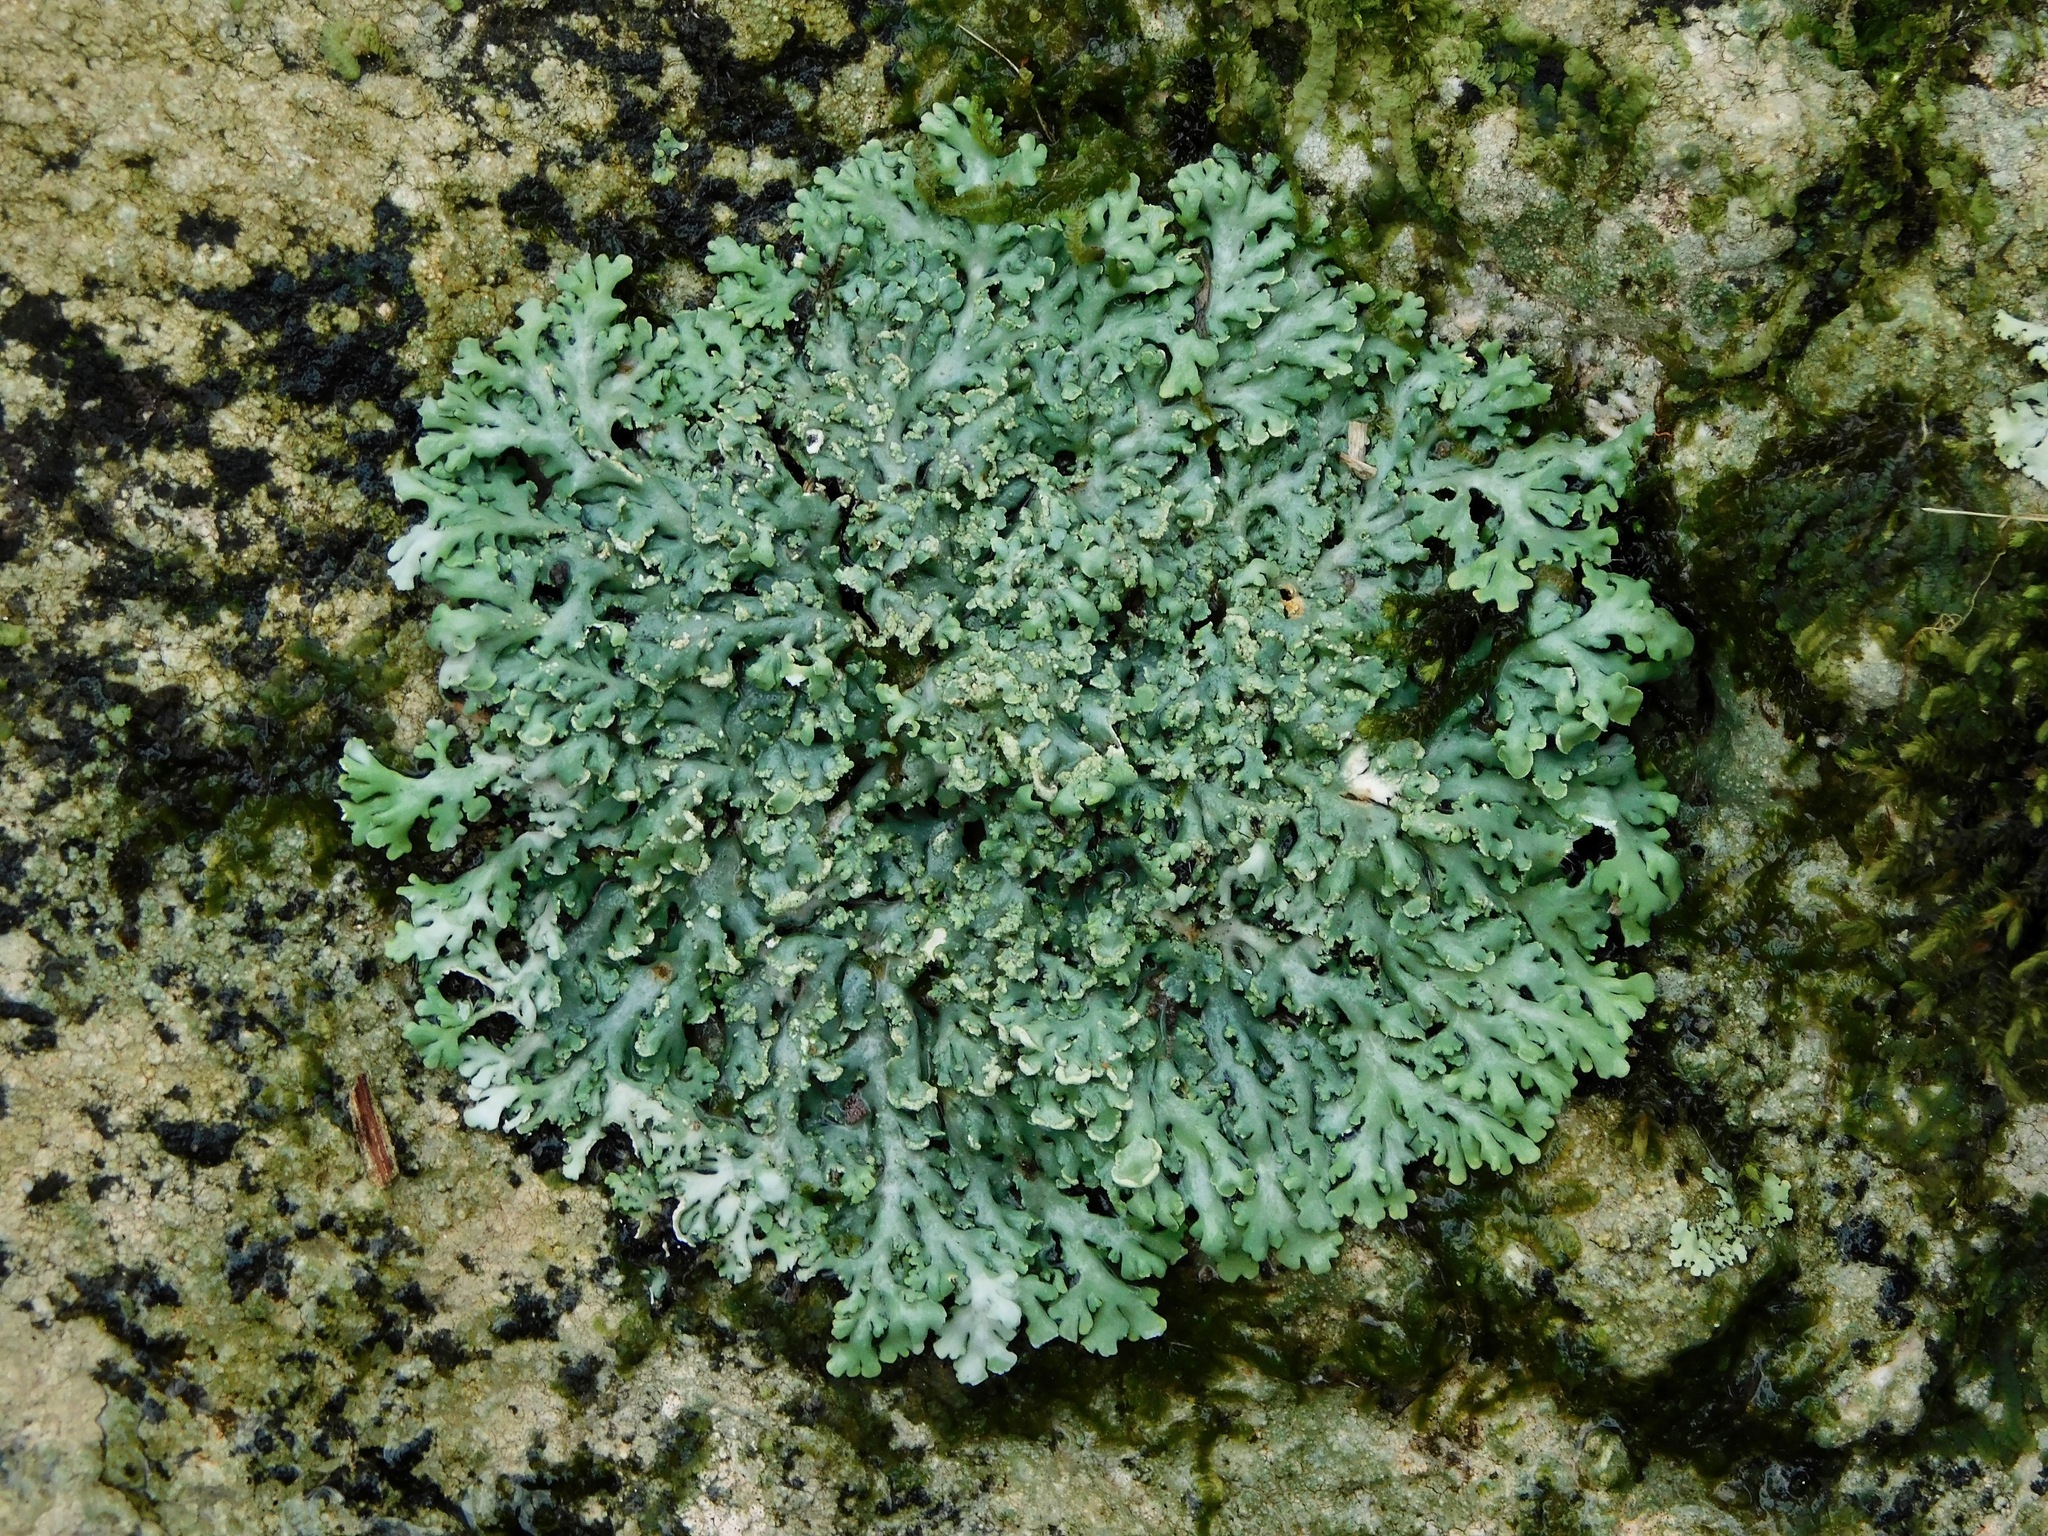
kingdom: Fungi
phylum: Ascomycota
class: Lecanoromycetes
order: Caliciales
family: Physciaceae
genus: Polyblastidium
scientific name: Polyblastidium neglectum
